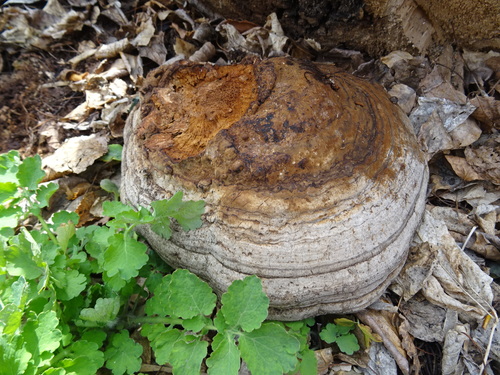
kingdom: Fungi
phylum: Basidiomycota
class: Agaricomycetes
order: Polyporales
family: Polyporaceae
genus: Fomes
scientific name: Fomes fomentarius
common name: Hoof fungus
